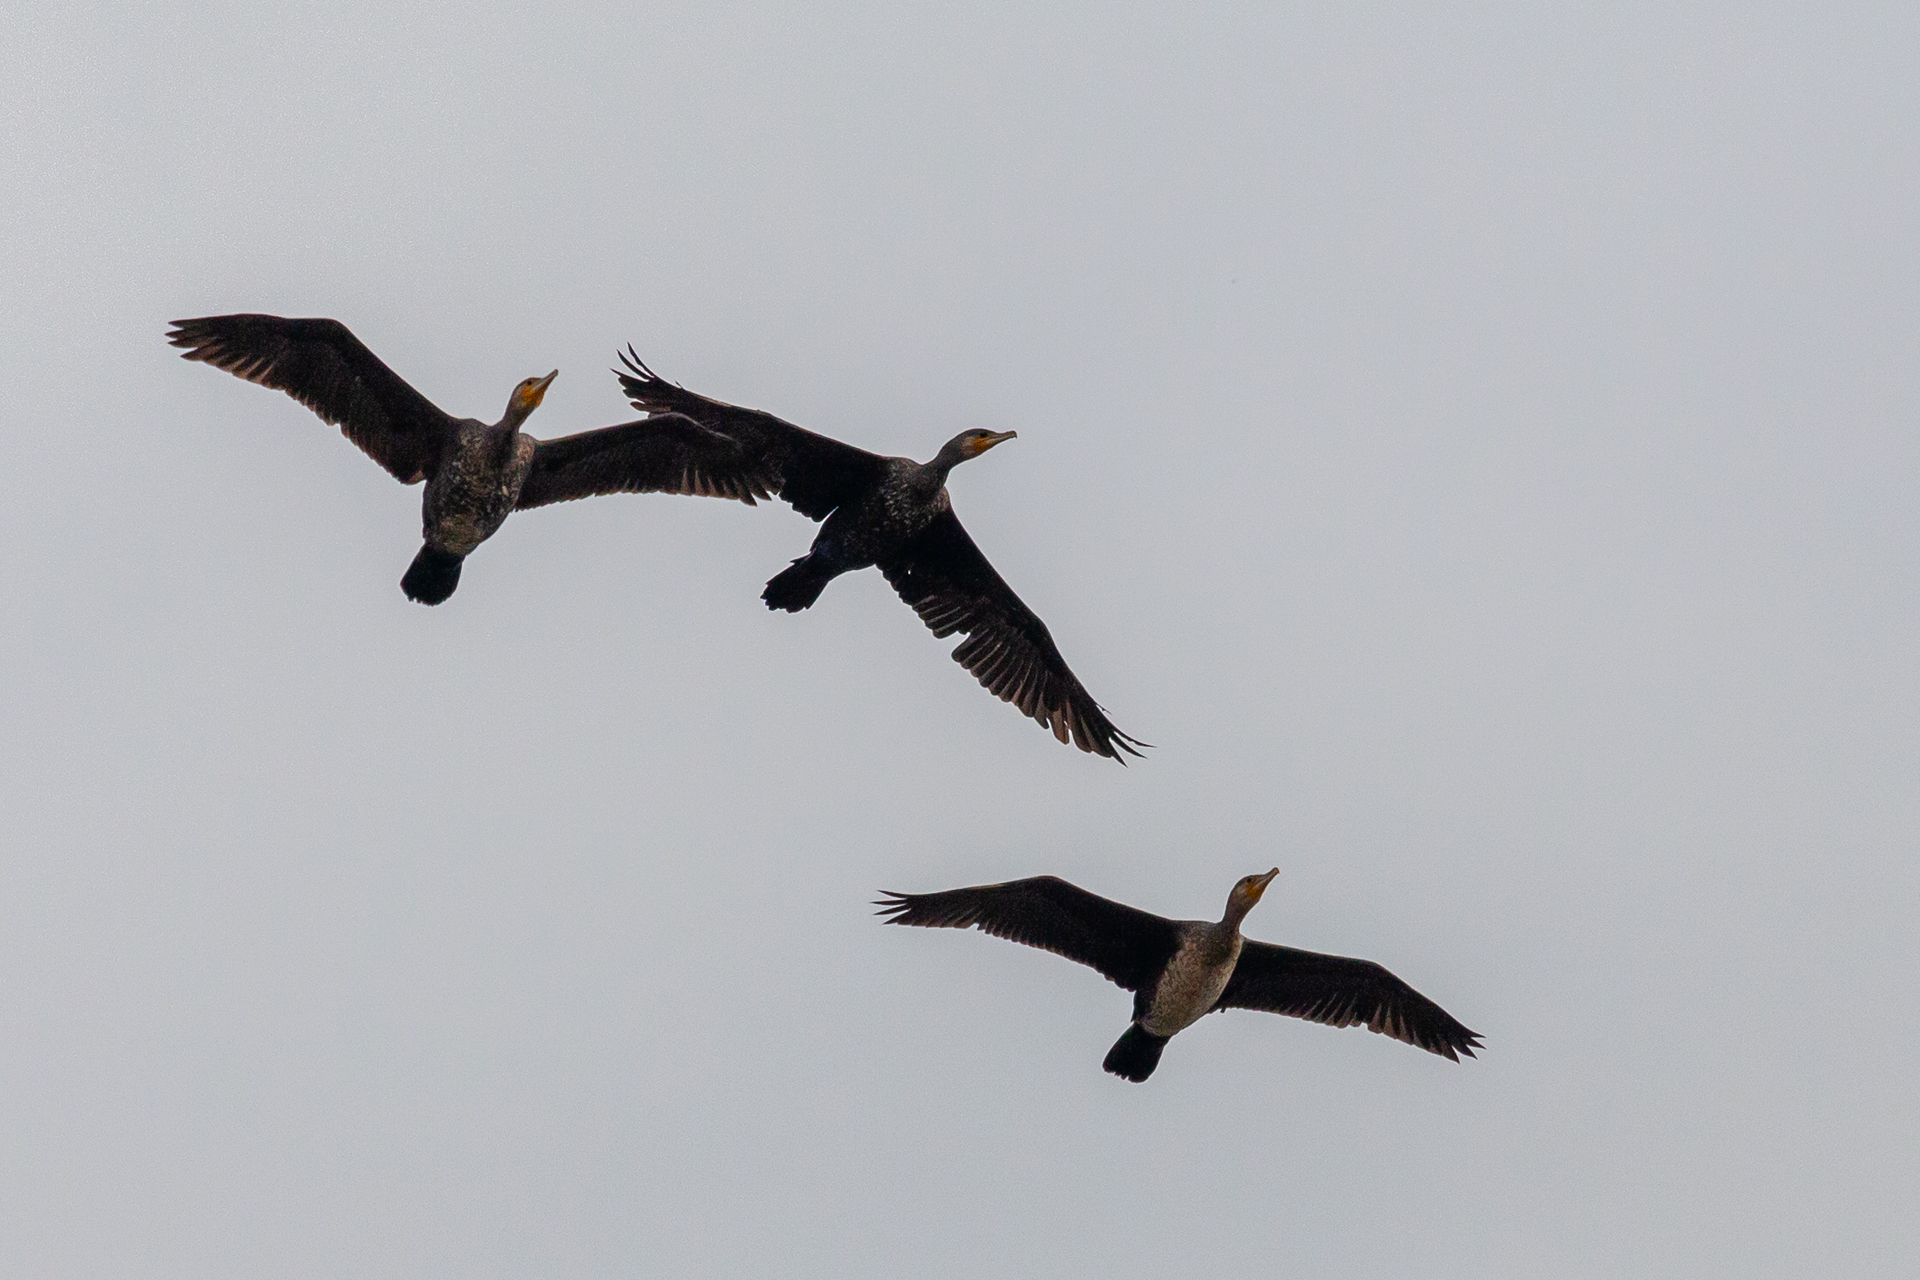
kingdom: Animalia
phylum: Chordata
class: Aves
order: Suliformes
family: Phalacrocoracidae
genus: Phalacrocorax
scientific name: Phalacrocorax carbo
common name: Great cormorant
